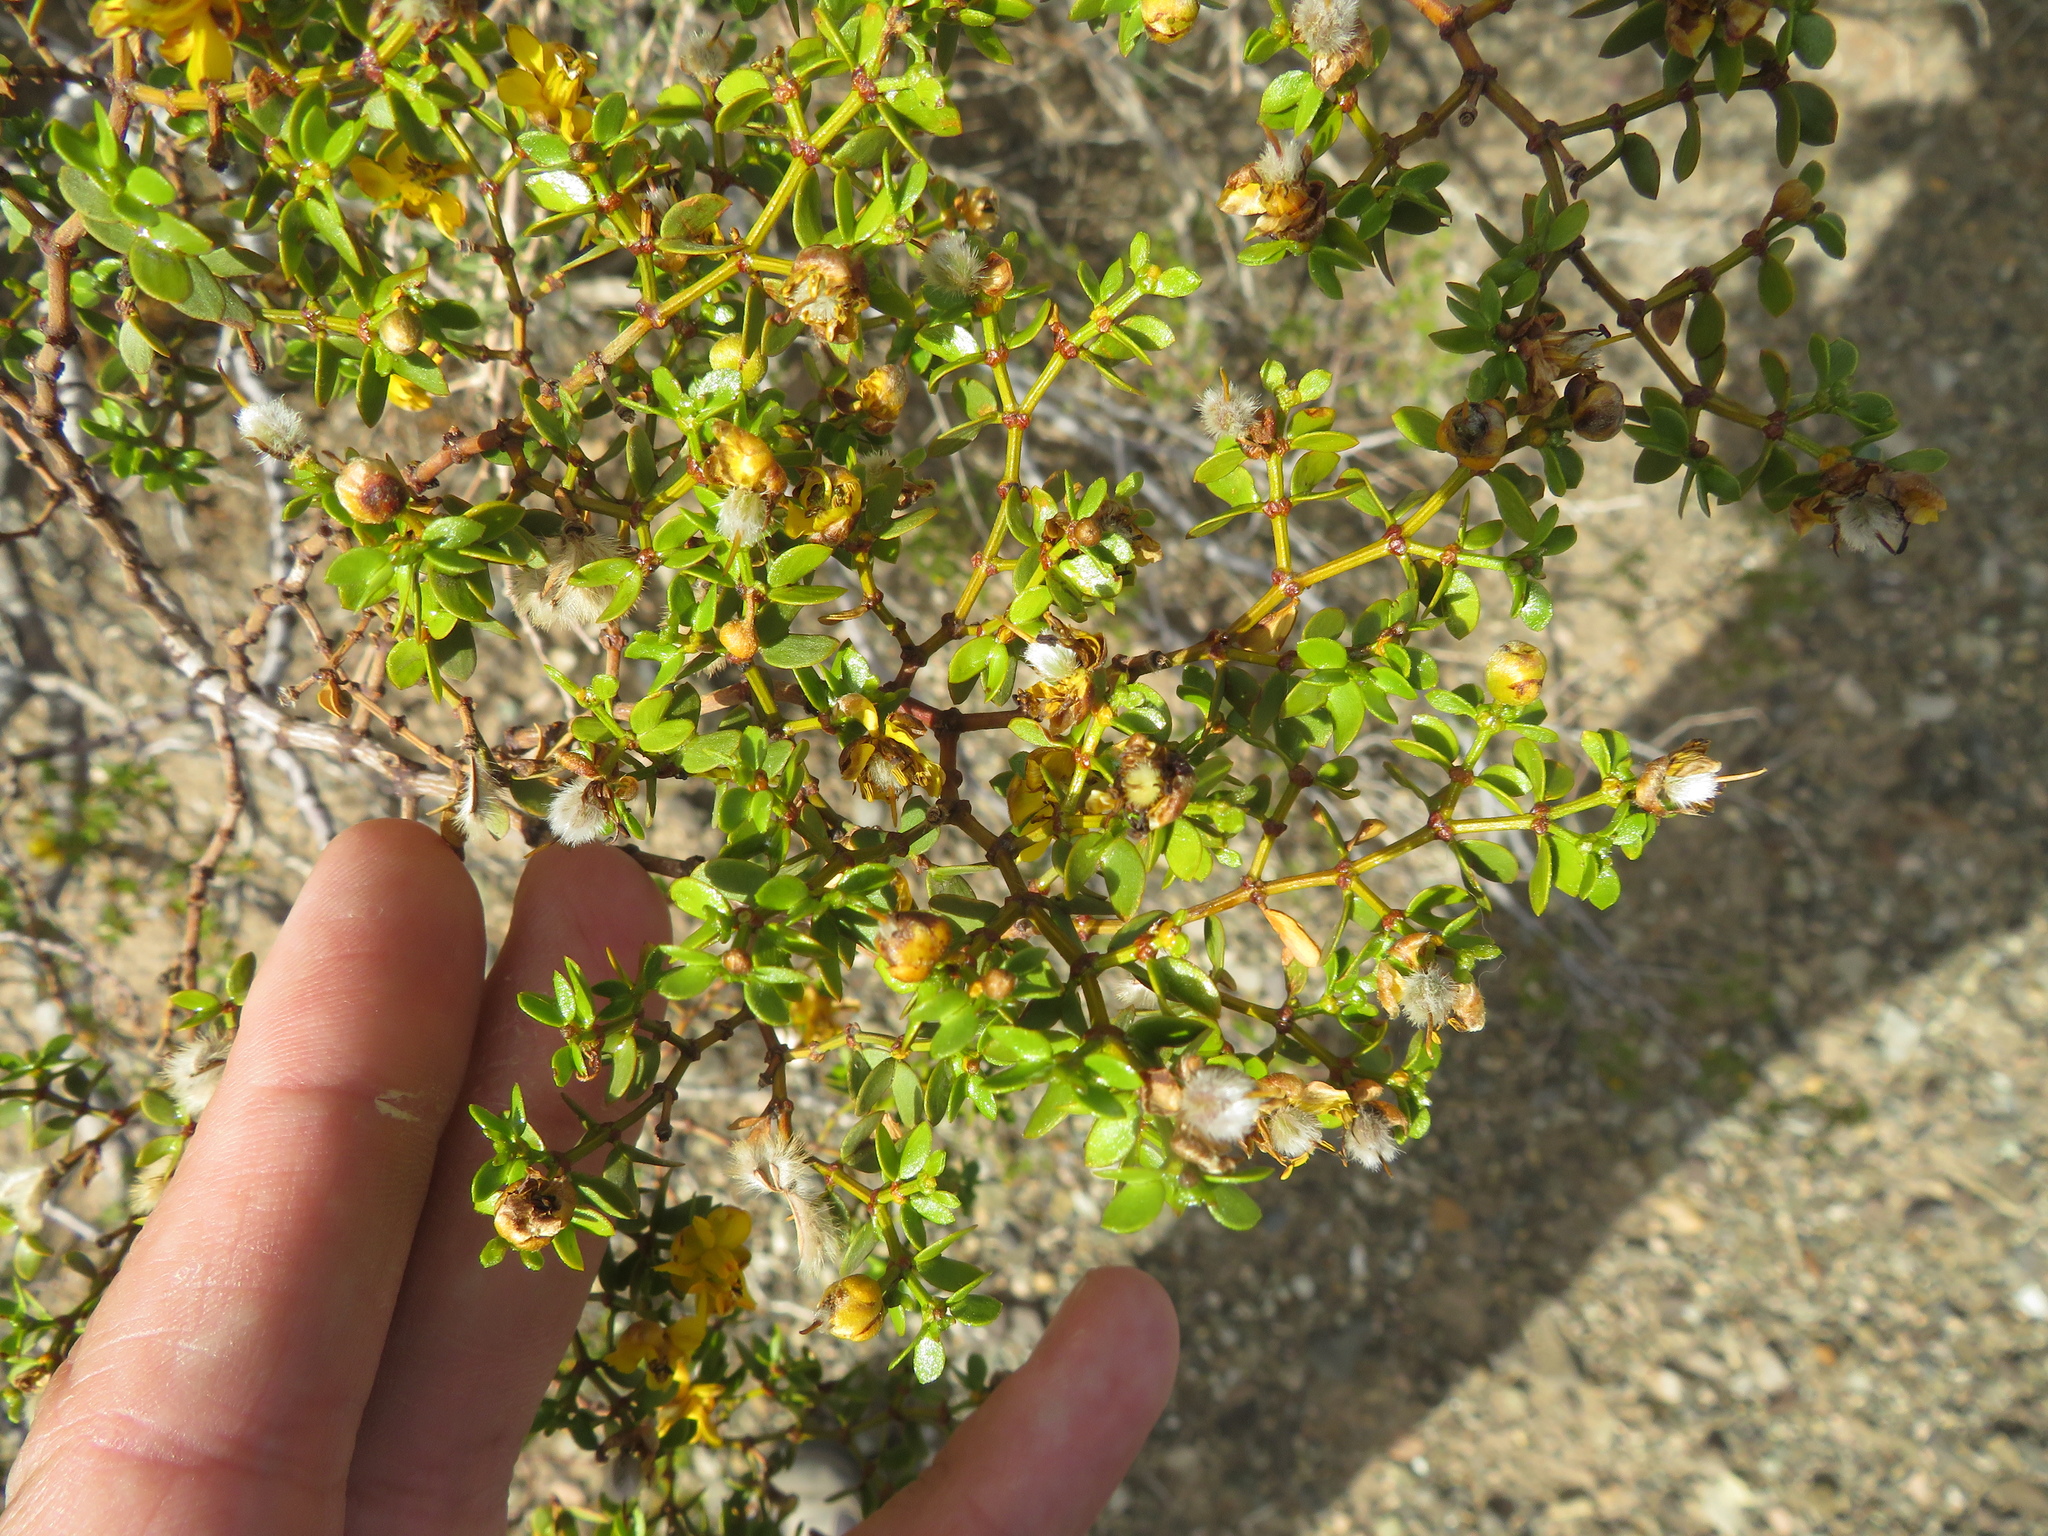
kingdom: Plantae
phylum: Tracheophyta
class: Magnoliopsida
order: Zygophyllales
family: Zygophyllaceae
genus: Larrea
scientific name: Larrea divaricata
